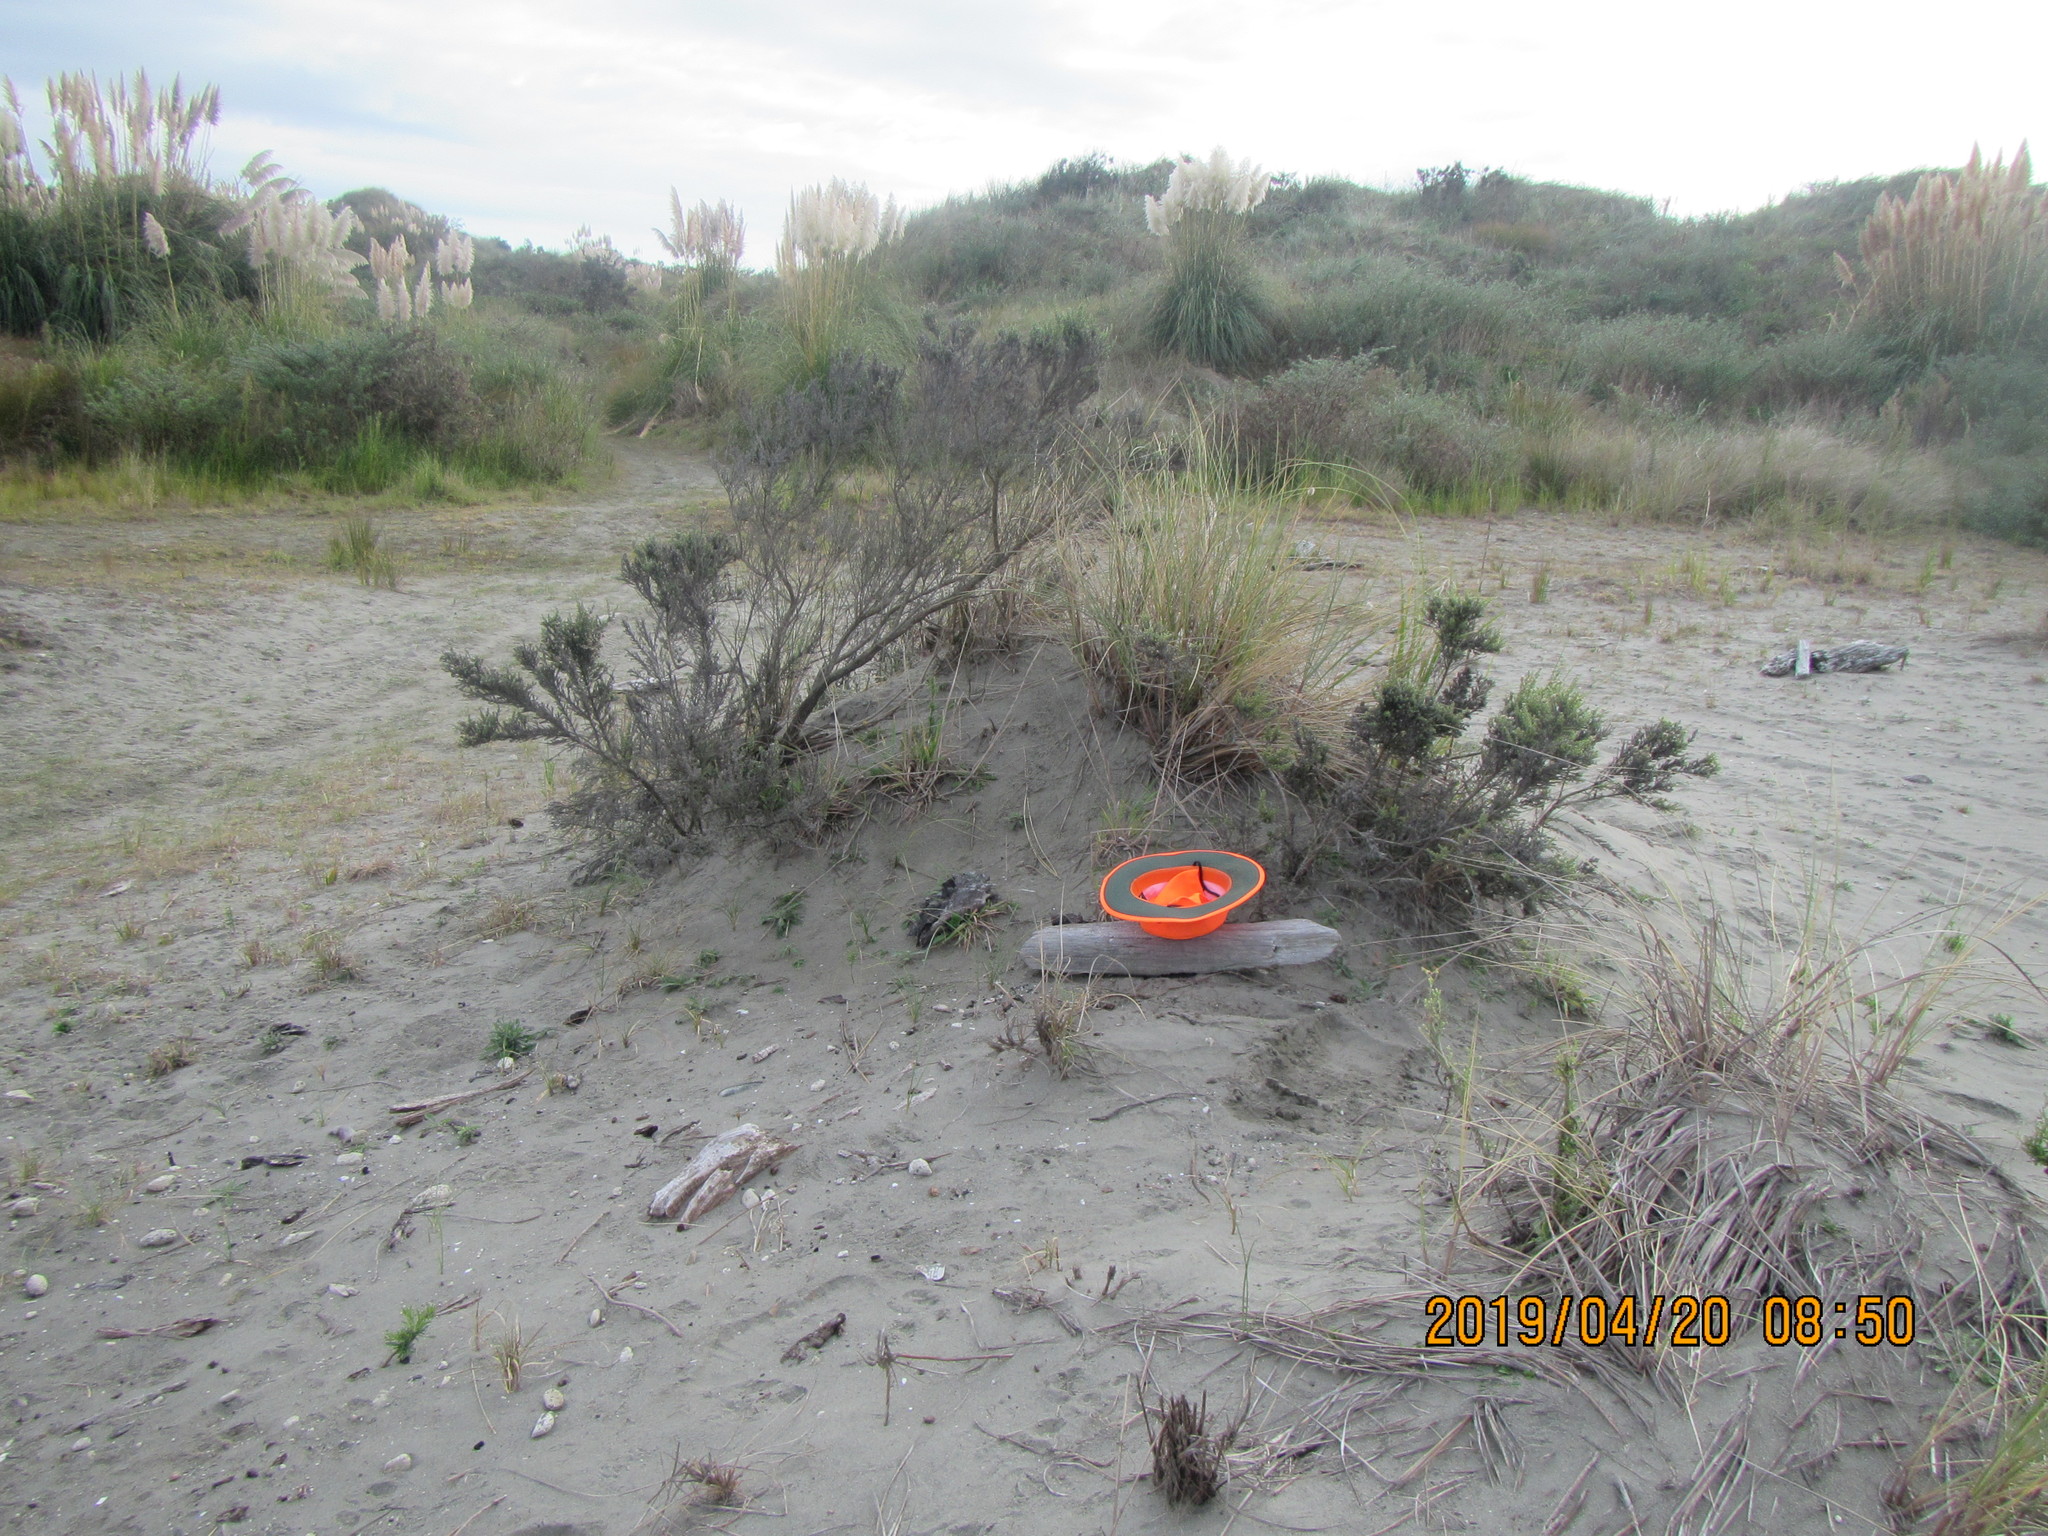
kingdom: Animalia
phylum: Arthropoda
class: Arachnida
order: Araneae
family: Theridiidae
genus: Latrodectus
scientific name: Latrodectus katipo
